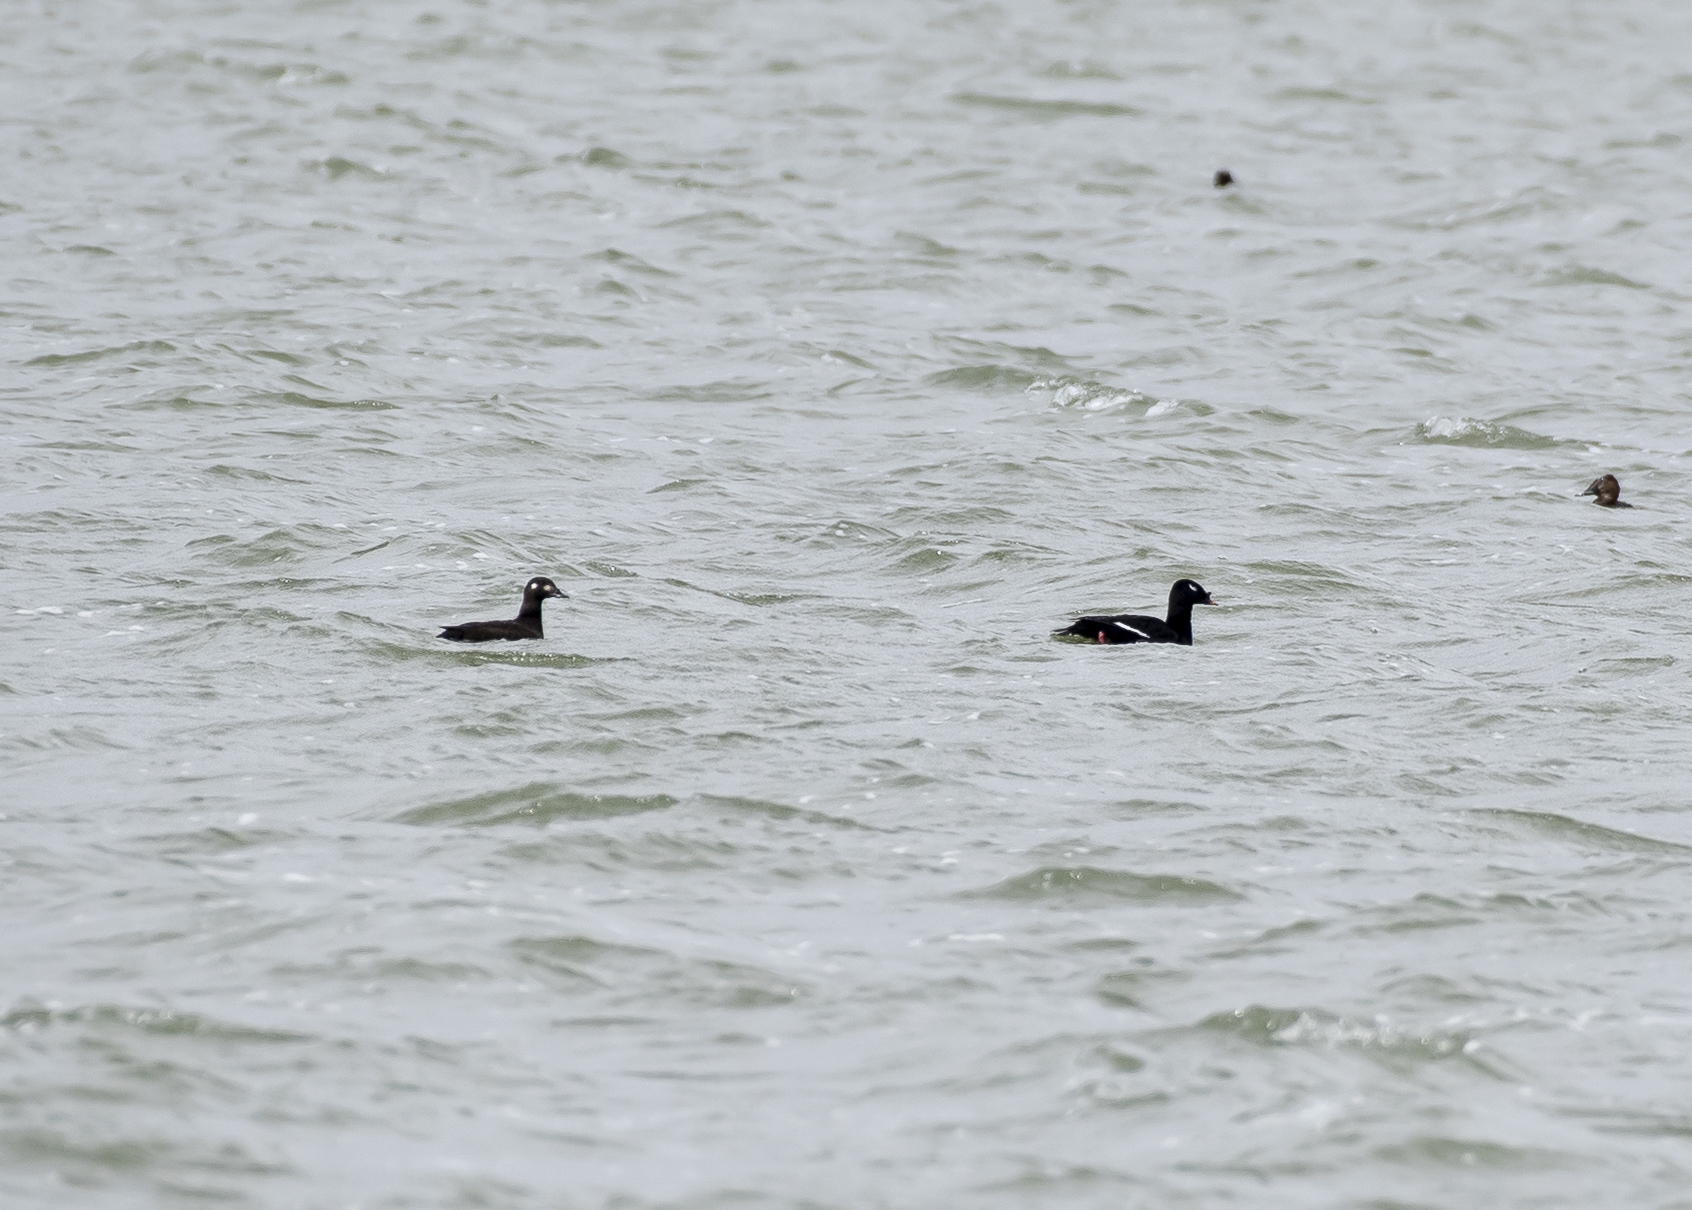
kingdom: Animalia
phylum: Chordata
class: Aves
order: Anseriformes
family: Anatidae
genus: Melanitta
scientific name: Melanitta stejnegeri
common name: Stejneger's scoter
